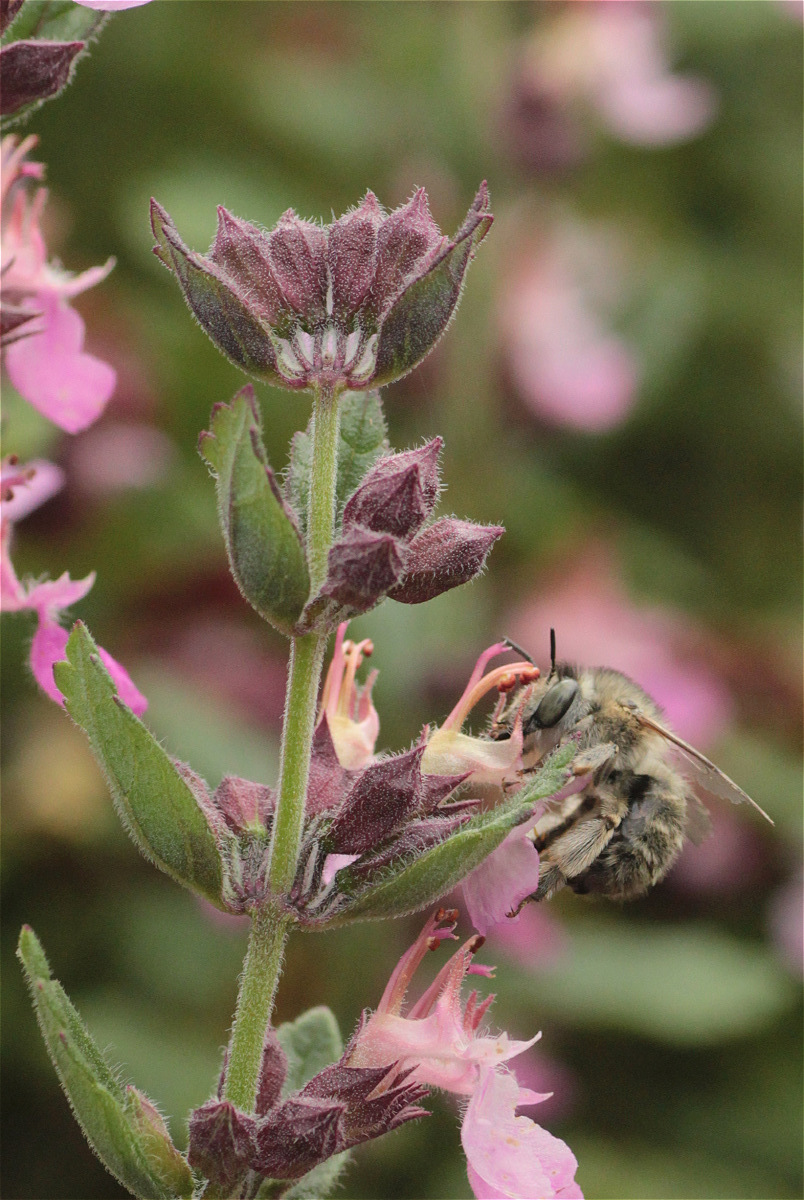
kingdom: Animalia
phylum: Arthropoda
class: Insecta
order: Hymenoptera
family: Apidae
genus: Anthophora
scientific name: Anthophora quadrimaculata
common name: Four-banded flower bee
